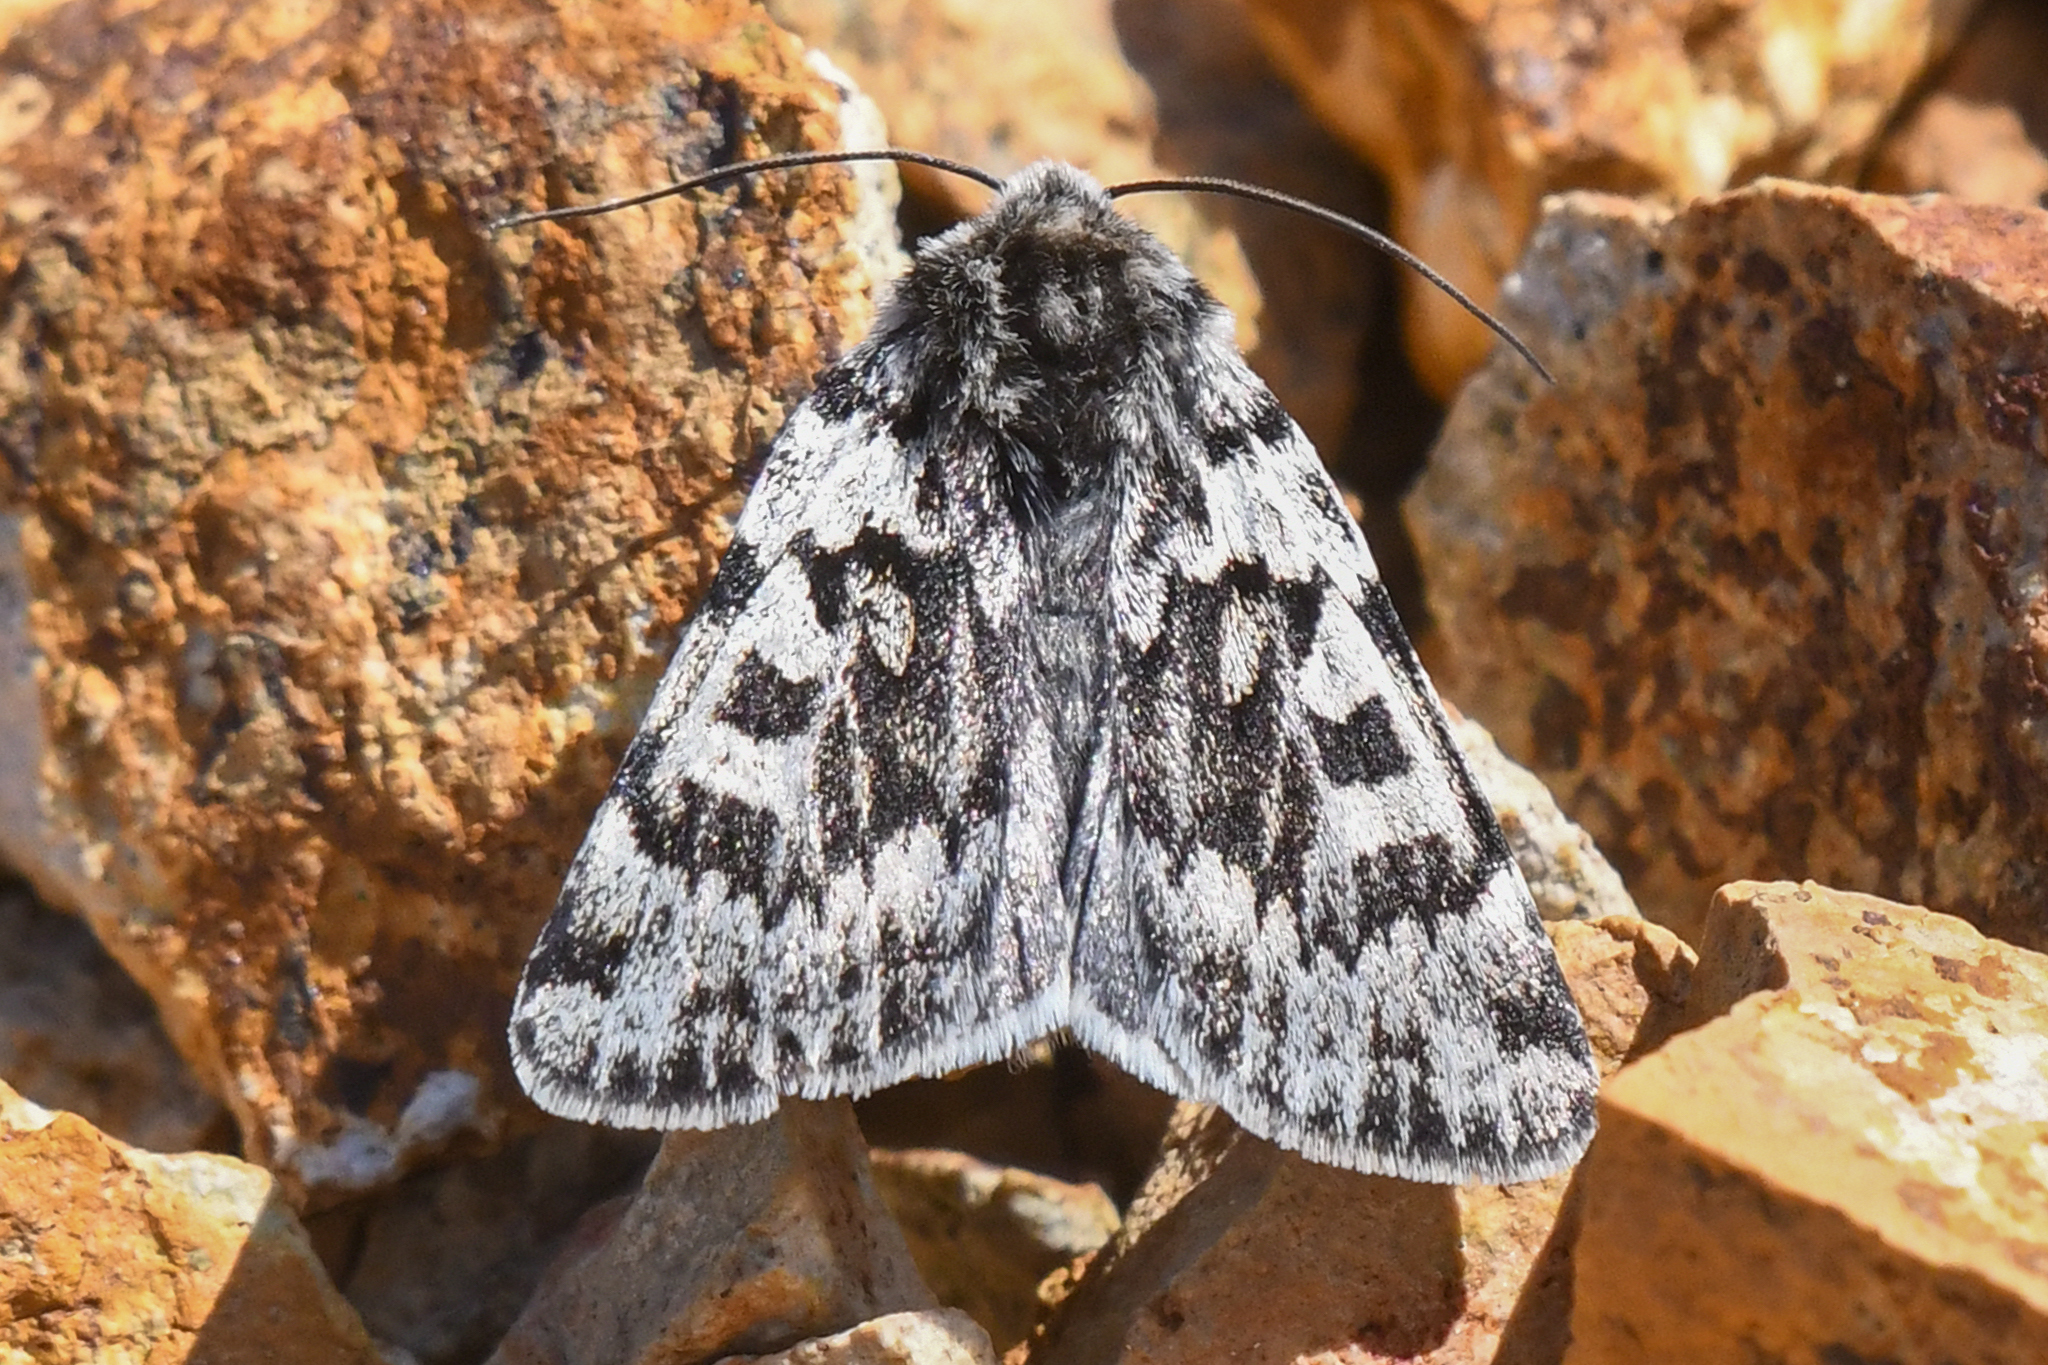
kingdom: Animalia
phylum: Arthropoda
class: Insecta
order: Lepidoptera
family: Noctuidae
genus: Xestia
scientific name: Xestia maculata
